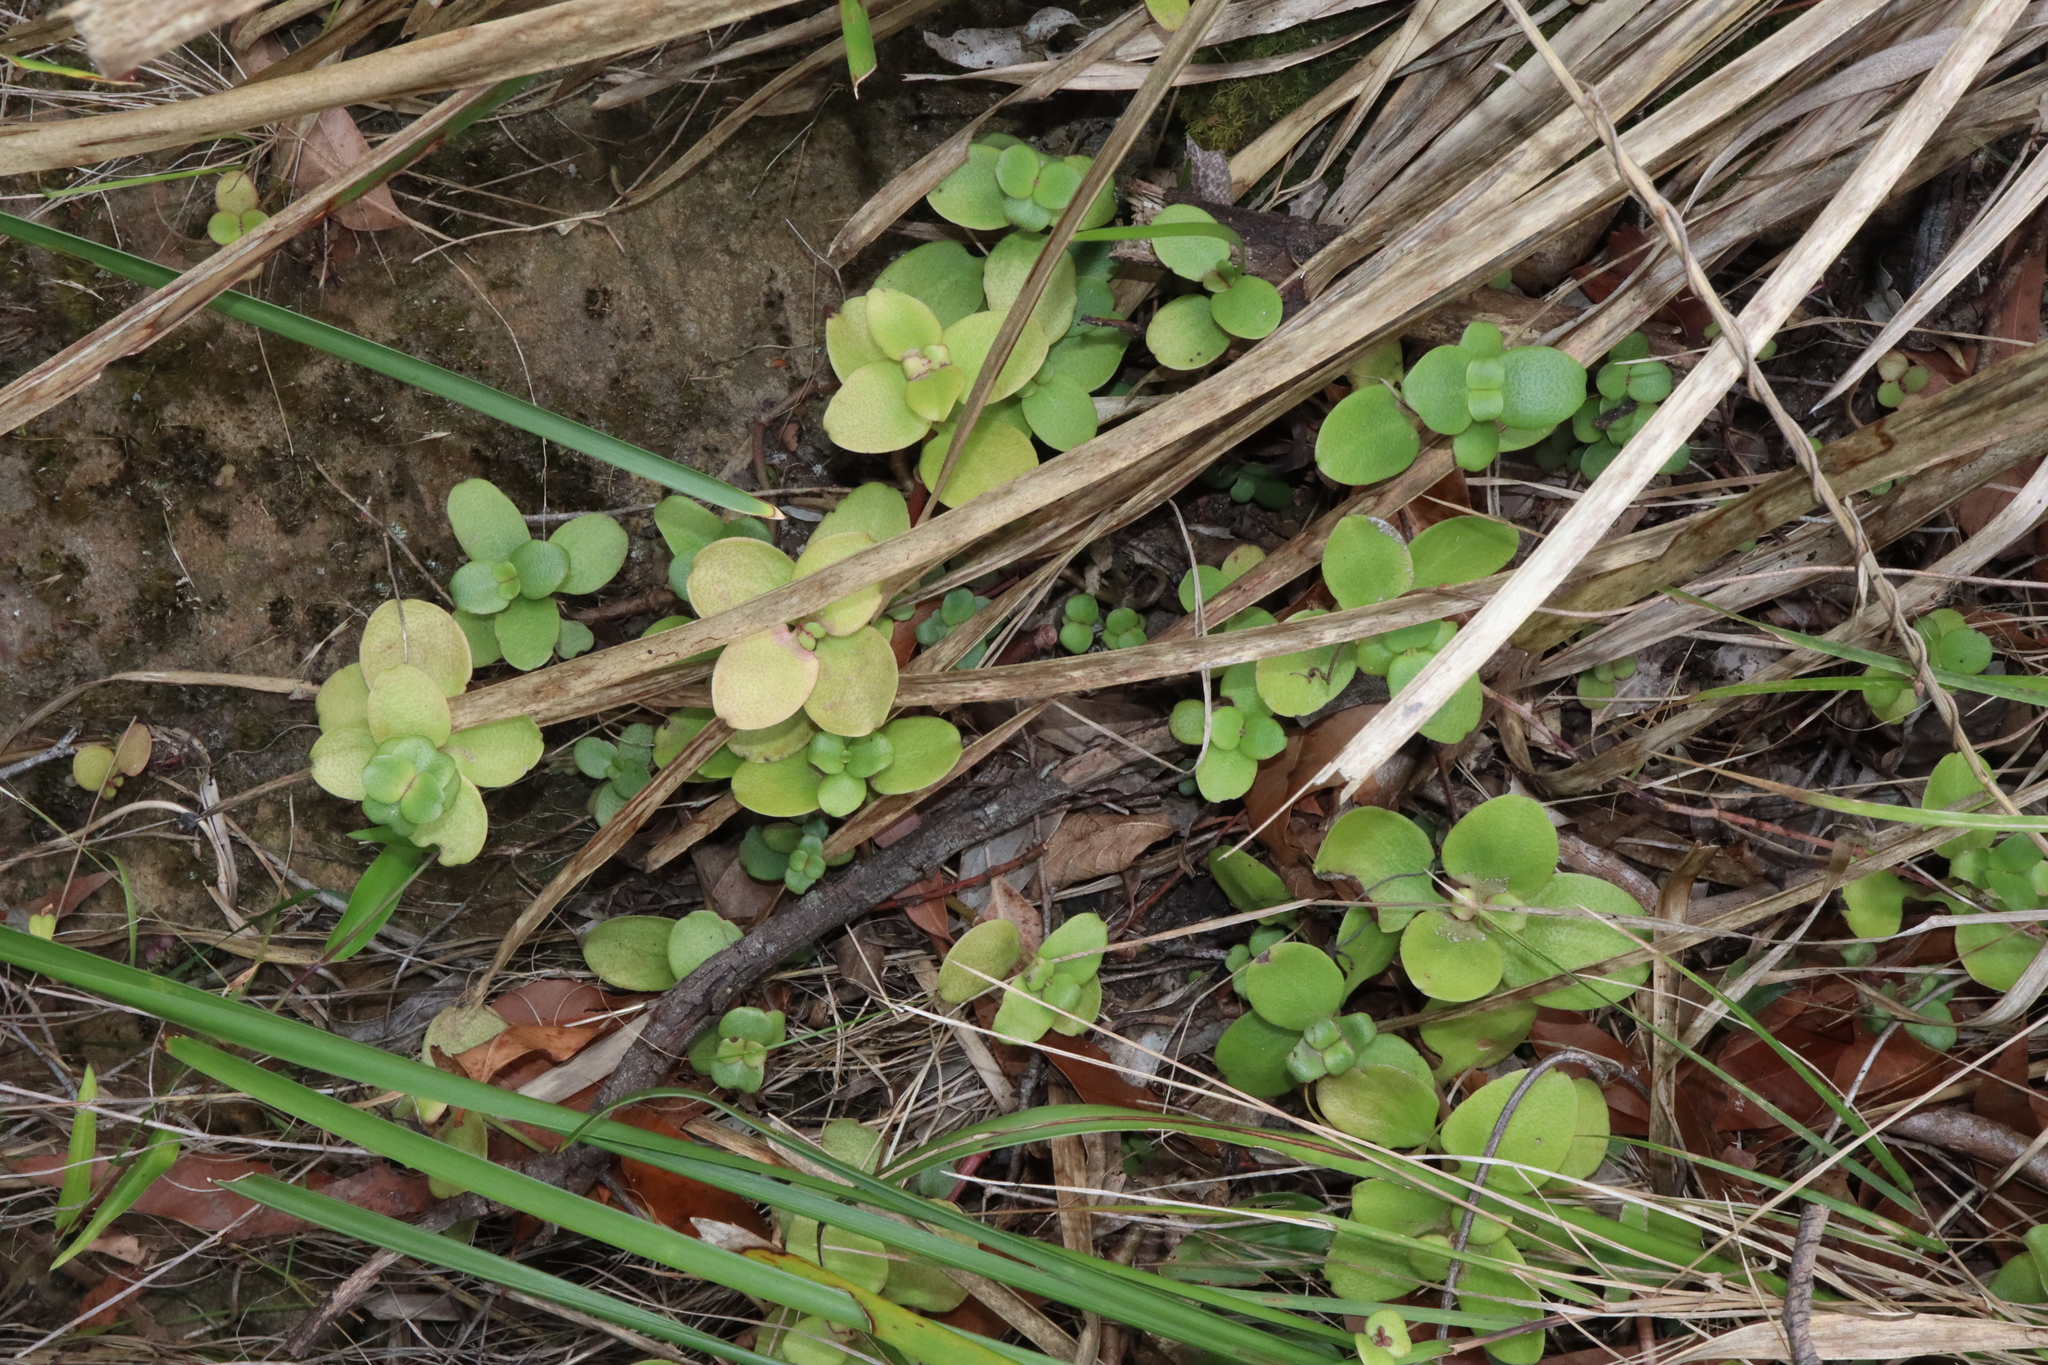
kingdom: Plantae
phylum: Tracheophyta
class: Magnoliopsida
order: Saxifragales
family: Crassulaceae
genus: Crassula
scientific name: Crassula multicava
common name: Cape province pygmyweed
